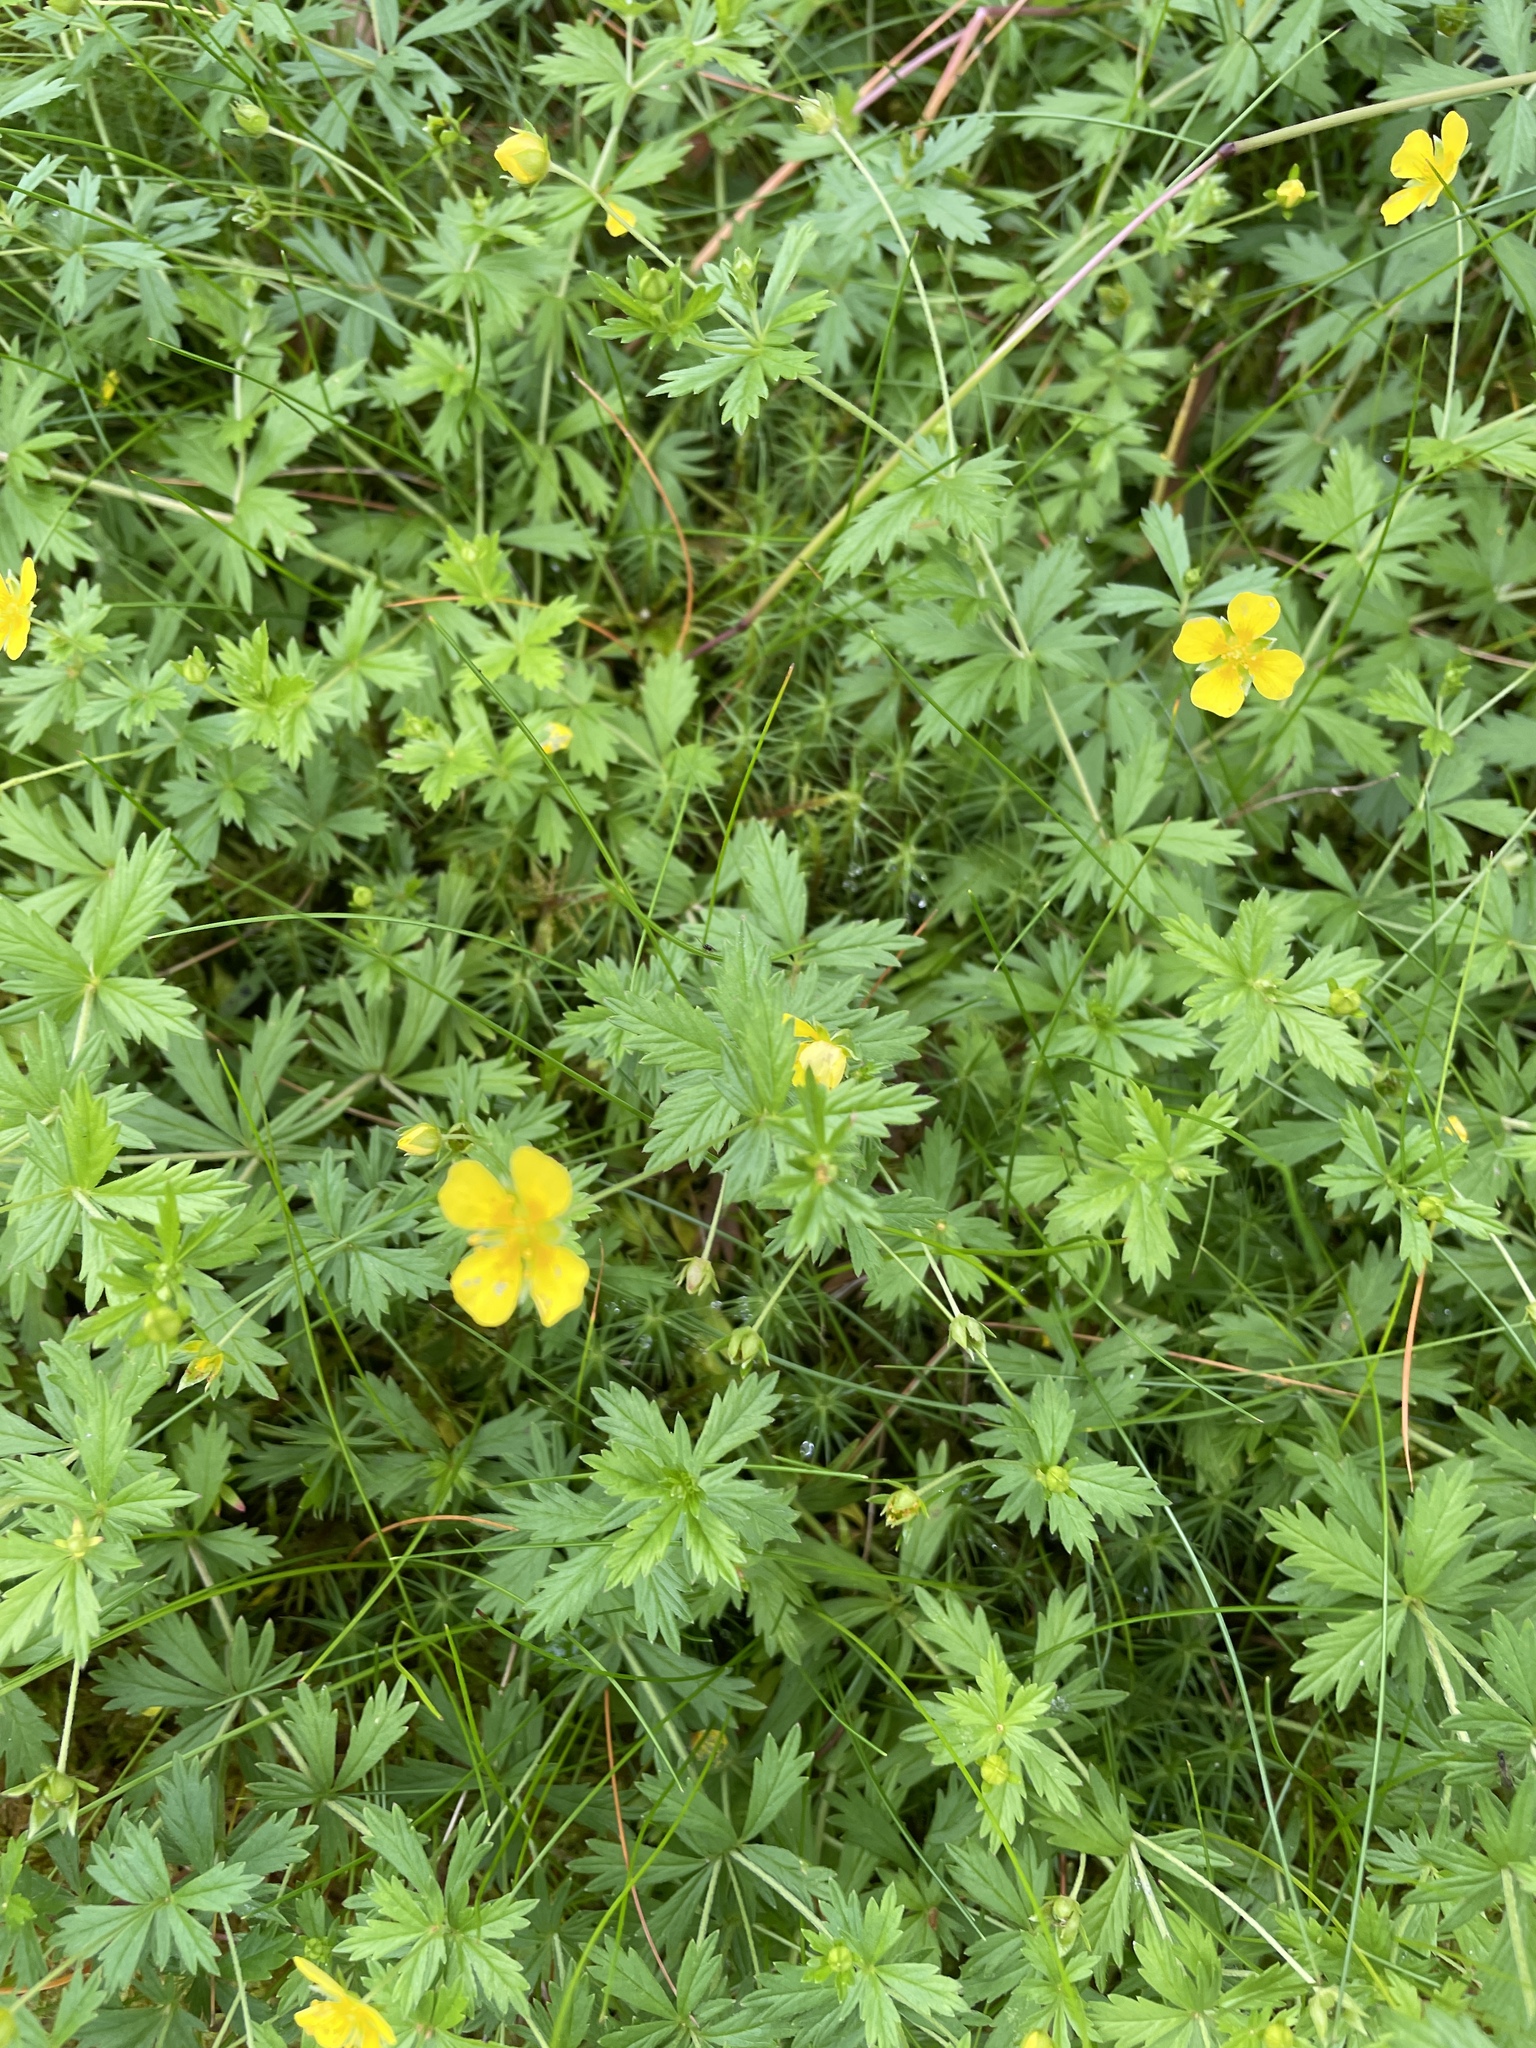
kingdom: Plantae
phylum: Tracheophyta
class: Magnoliopsida
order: Rosales
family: Rosaceae
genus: Potentilla
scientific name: Potentilla erecta
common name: Tormentil
